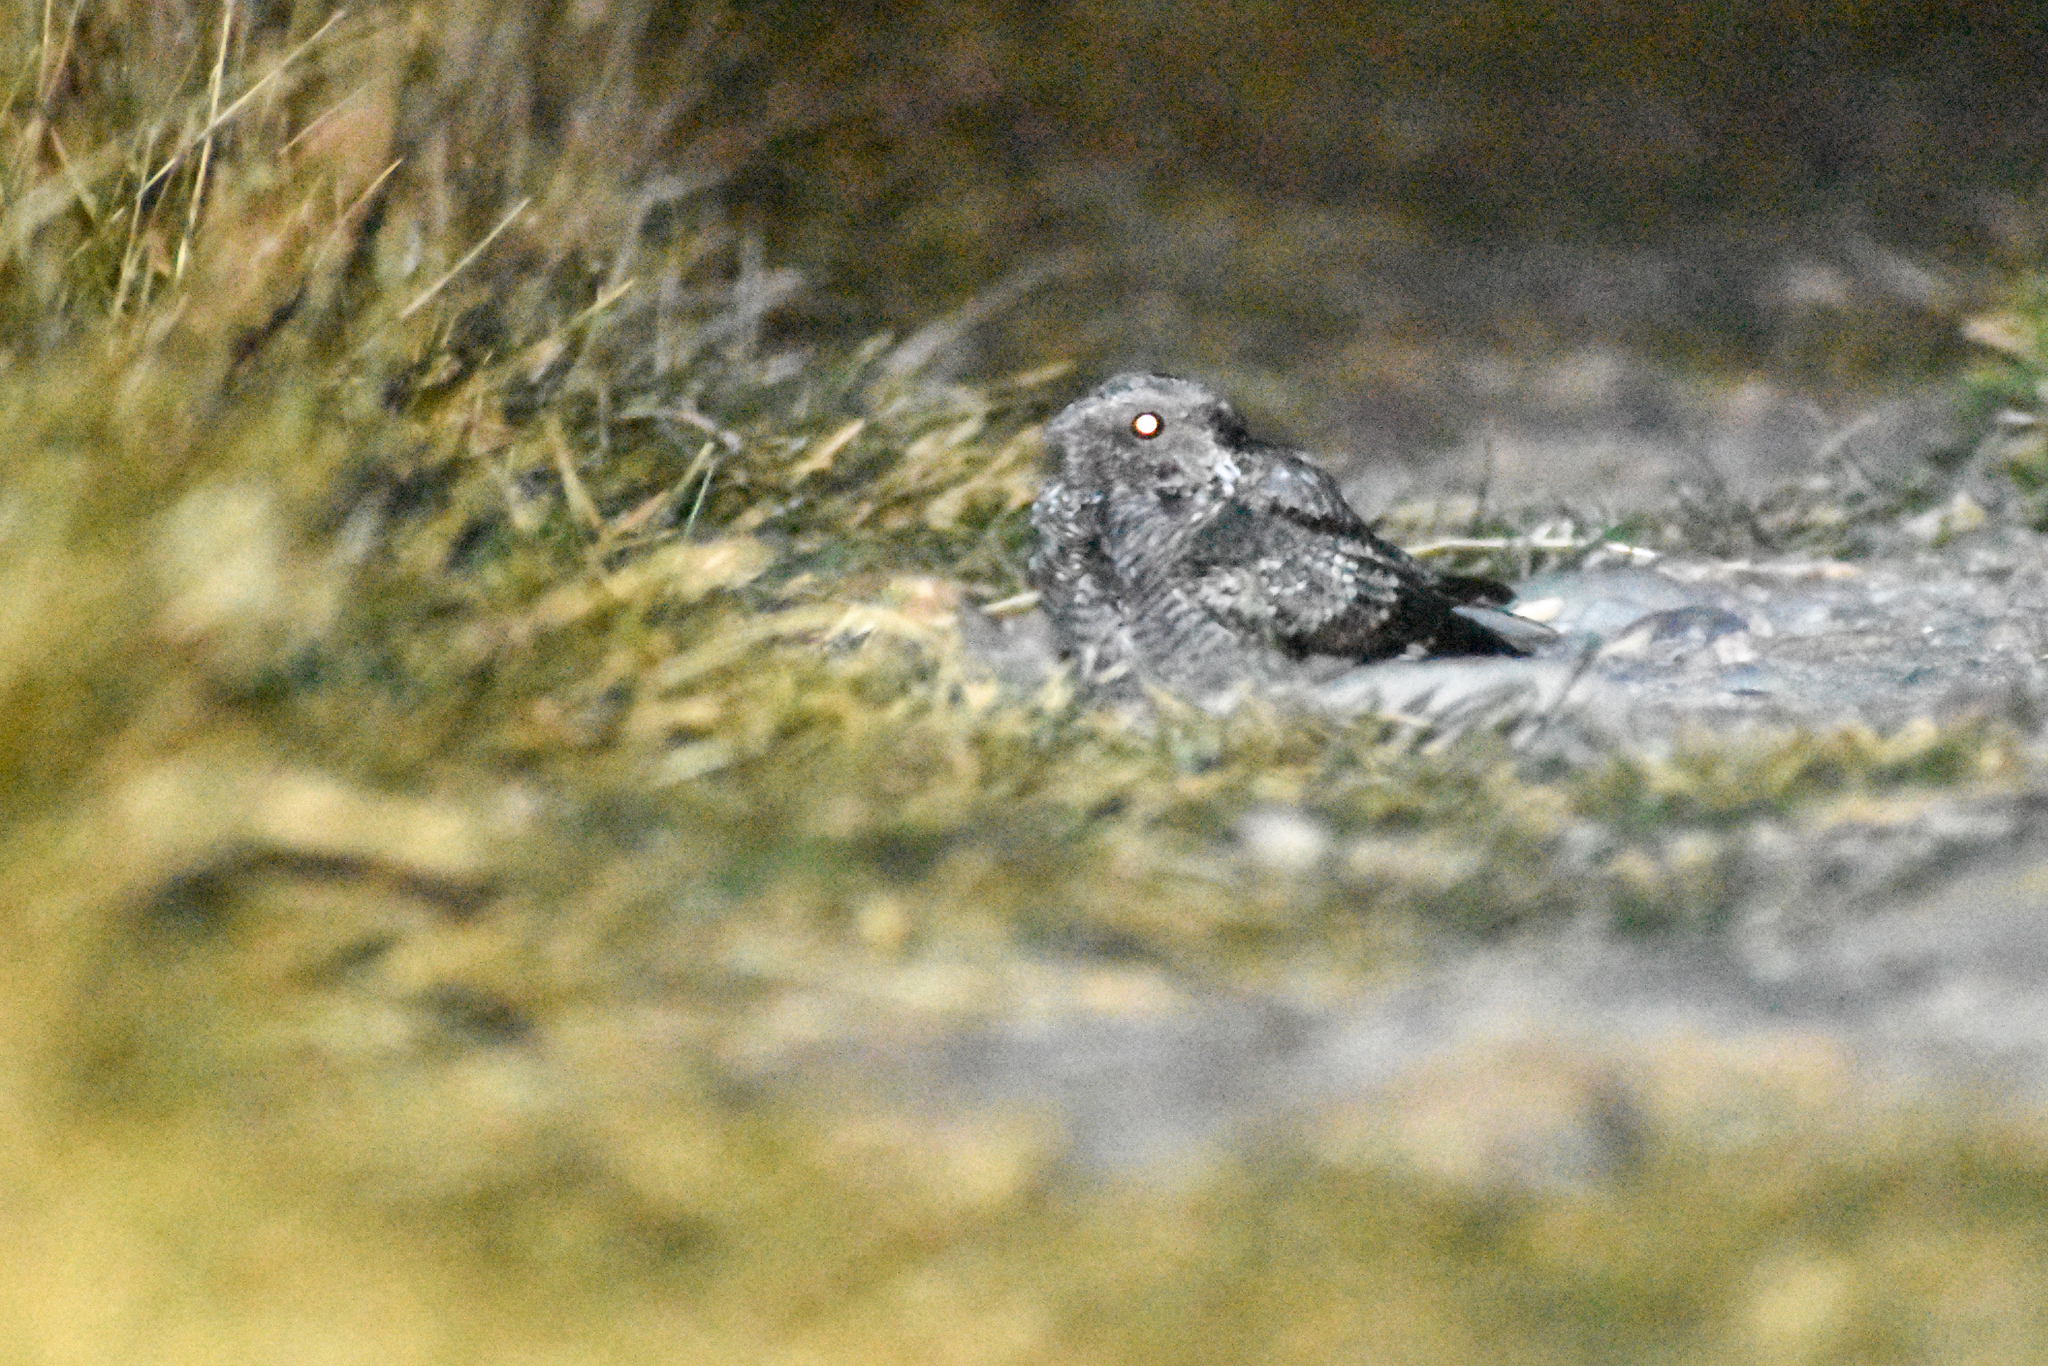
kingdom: Animalia
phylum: Chordata
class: Aves
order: Caprimulgiformes
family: Caprimulgidae
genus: Systellura
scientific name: Systellura longirostris
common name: Band-winged nightjar
